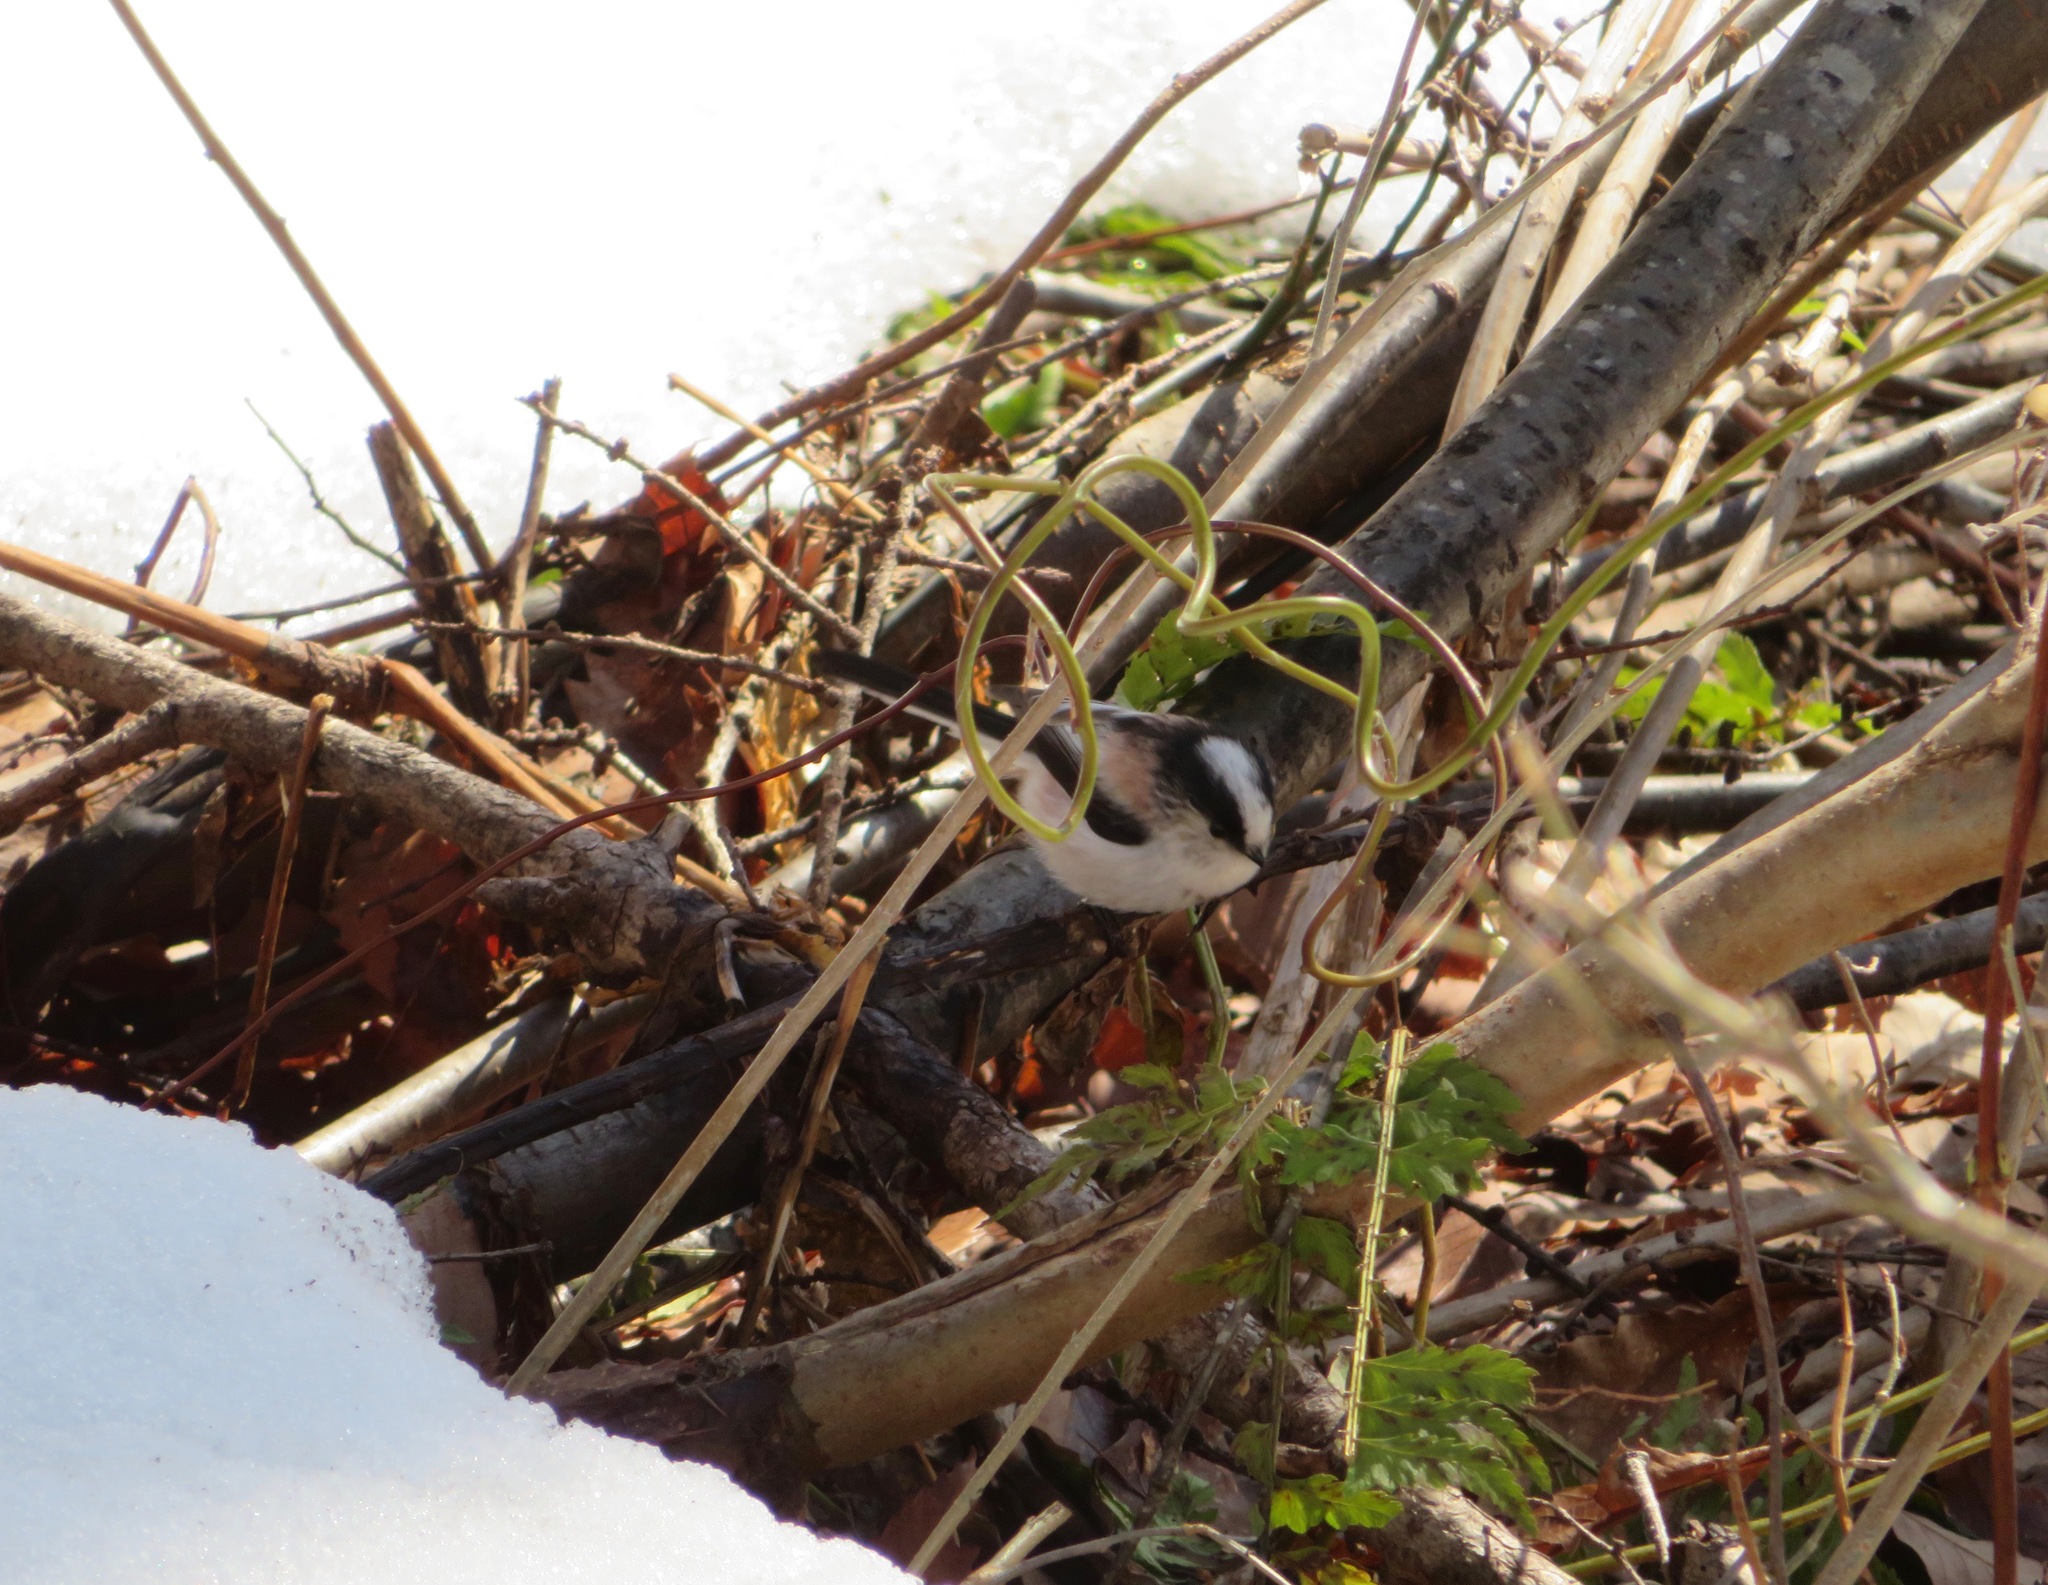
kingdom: Animalia
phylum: Chordata
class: Aves
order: Passeriformes
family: Aegithalidae
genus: Aegithalos
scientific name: Aegithalos caudatus
